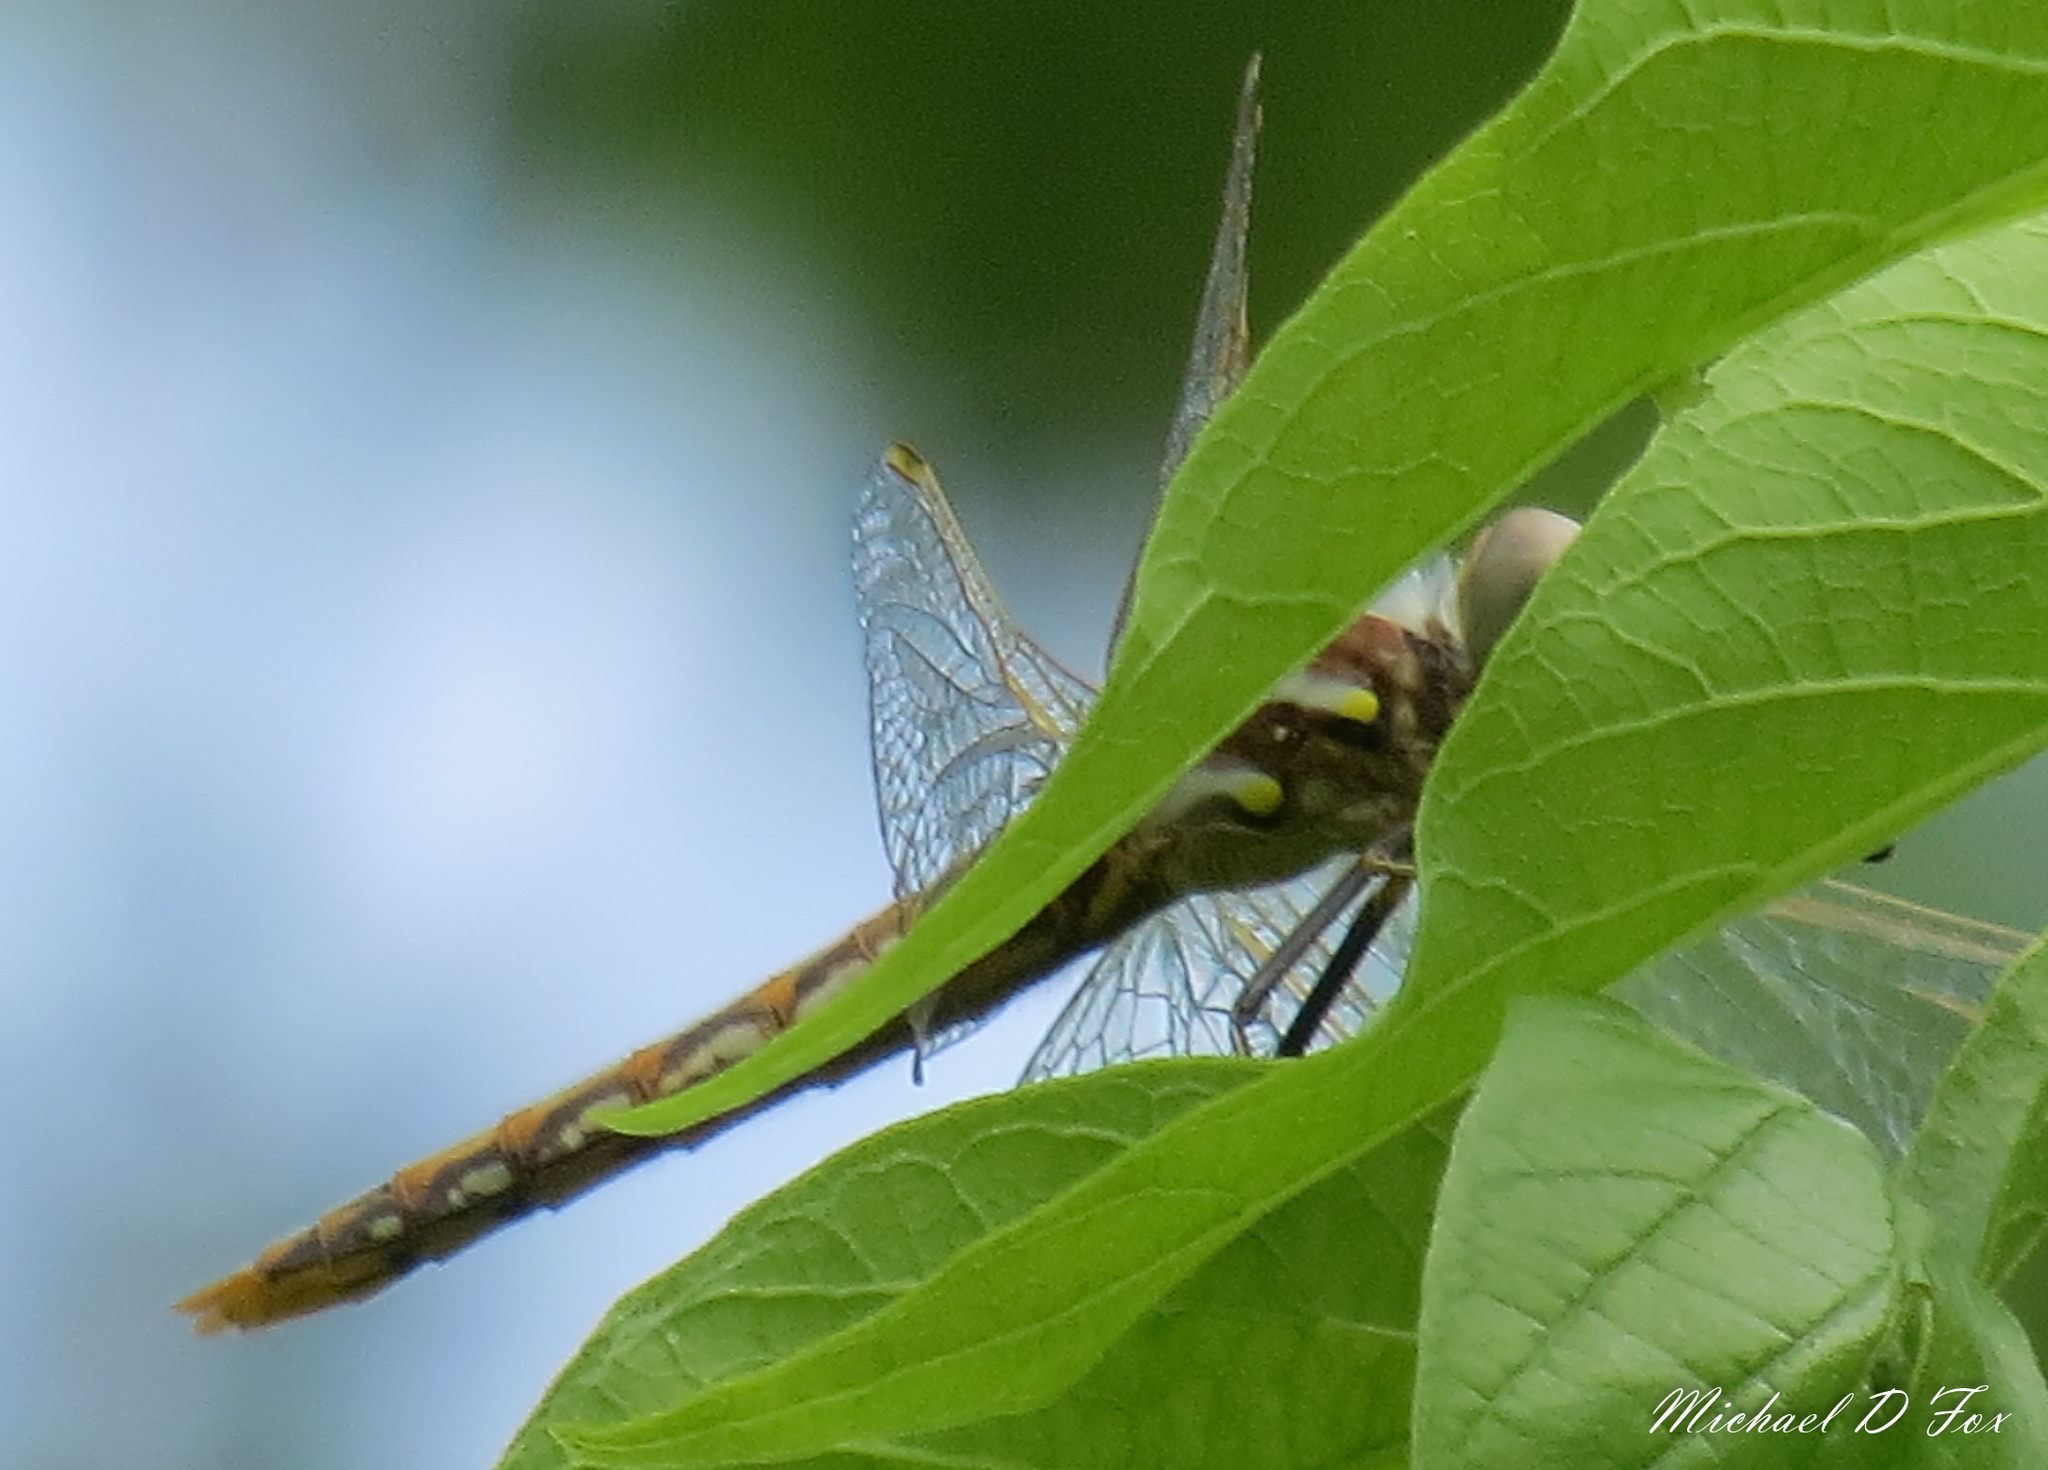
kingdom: Animalia
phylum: Arthropoda
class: Insecta
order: Odonata
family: Libellulidae
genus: Sympetrum
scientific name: Sympetrum corruptum
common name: Variegated meadowhawk
